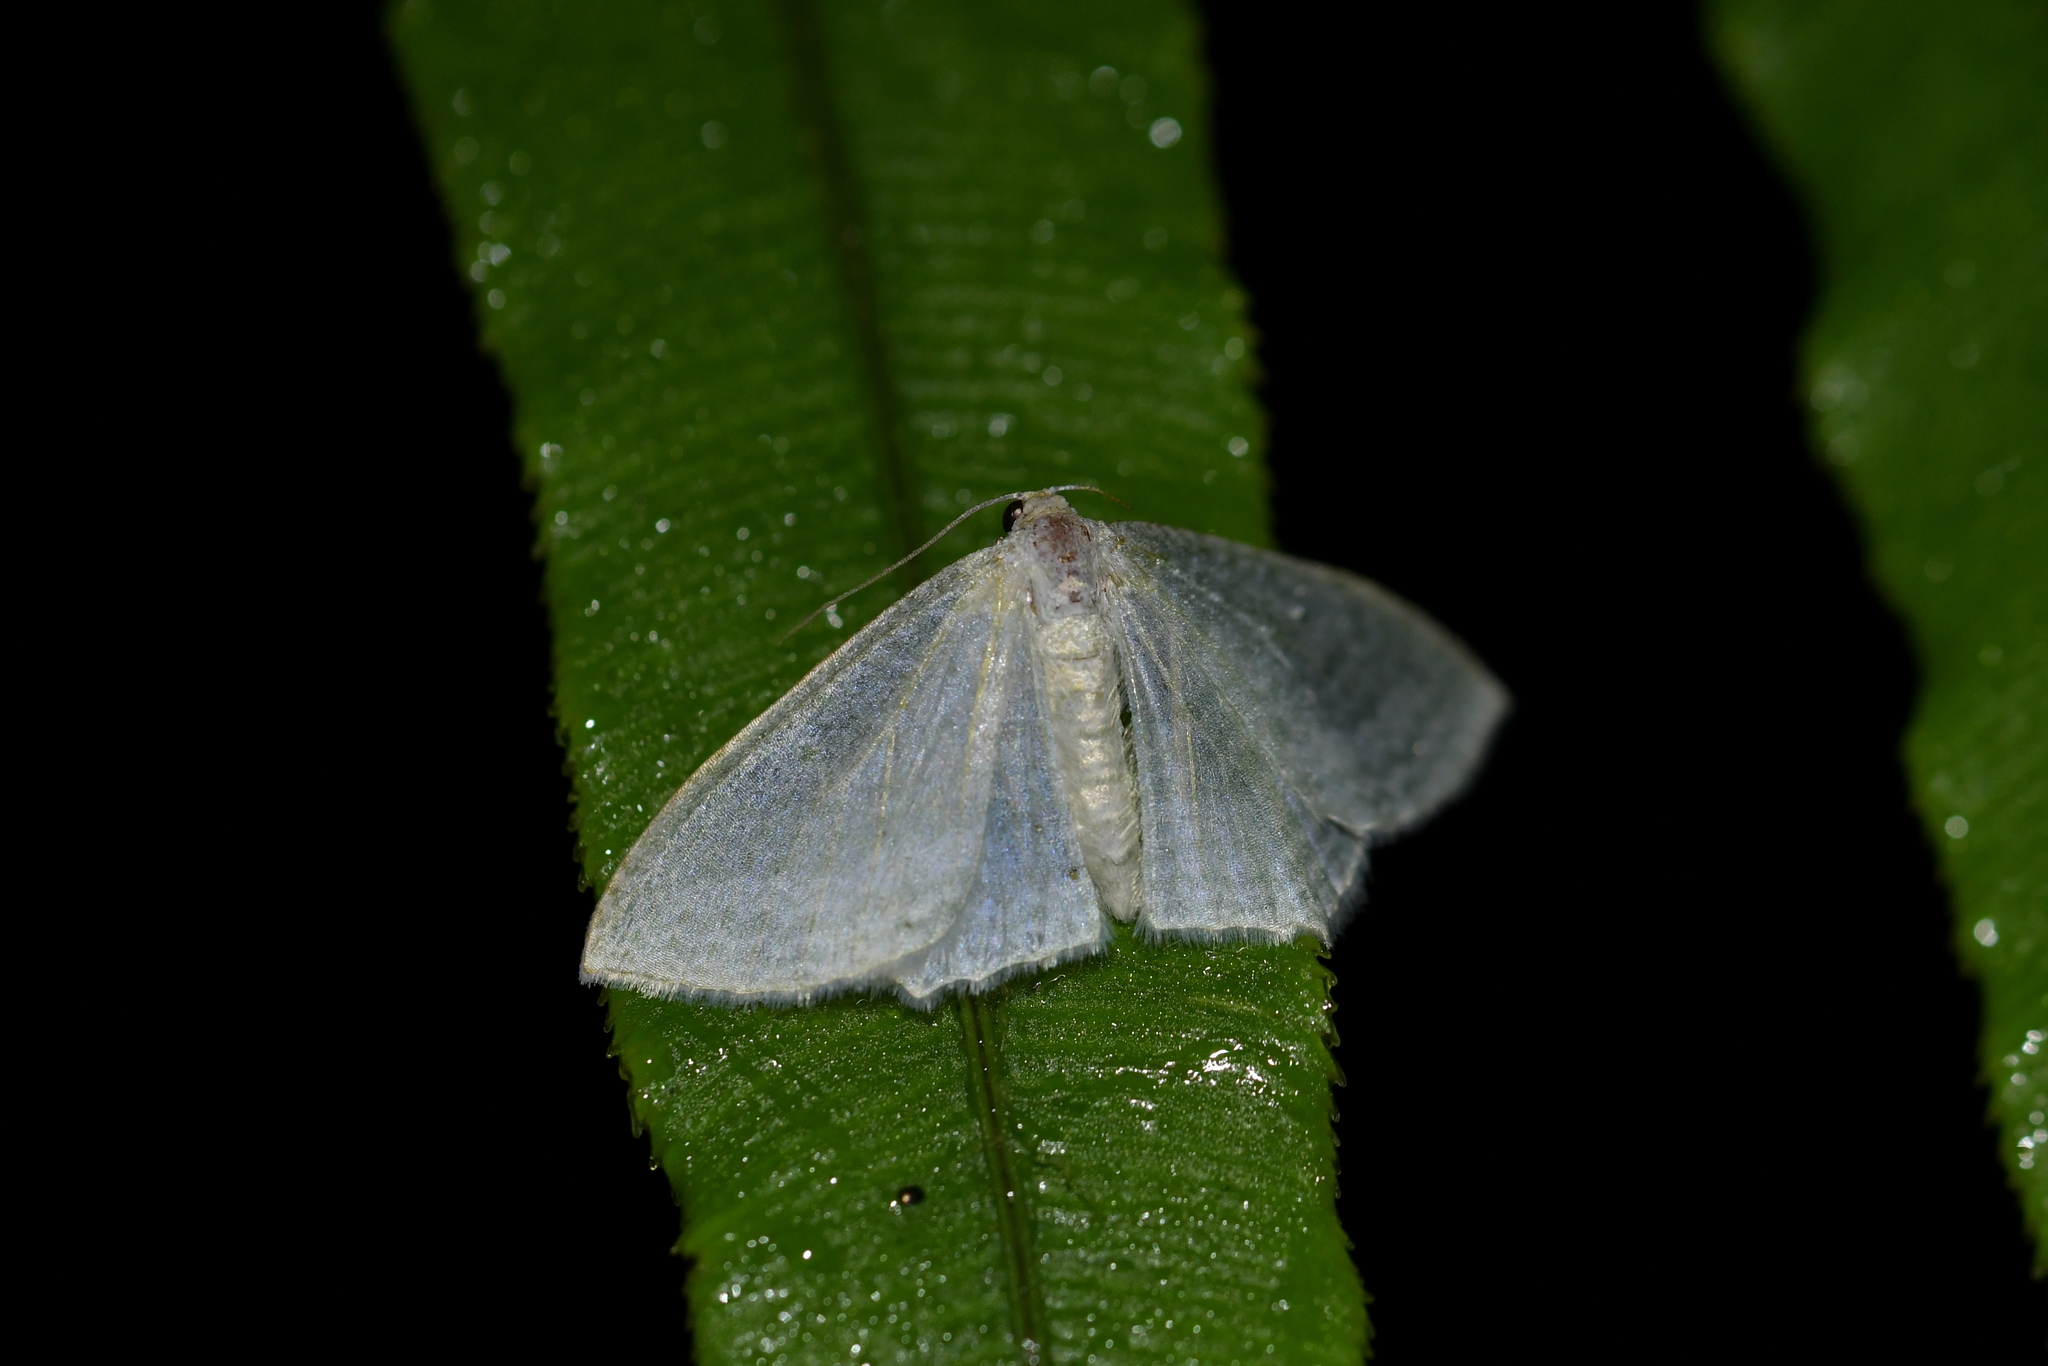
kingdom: Animalia
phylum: Arthropoda
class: Insecta
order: Lepidoptera
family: Geometridae
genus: Poecilasthena
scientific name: Poecilasthena pulchraria
